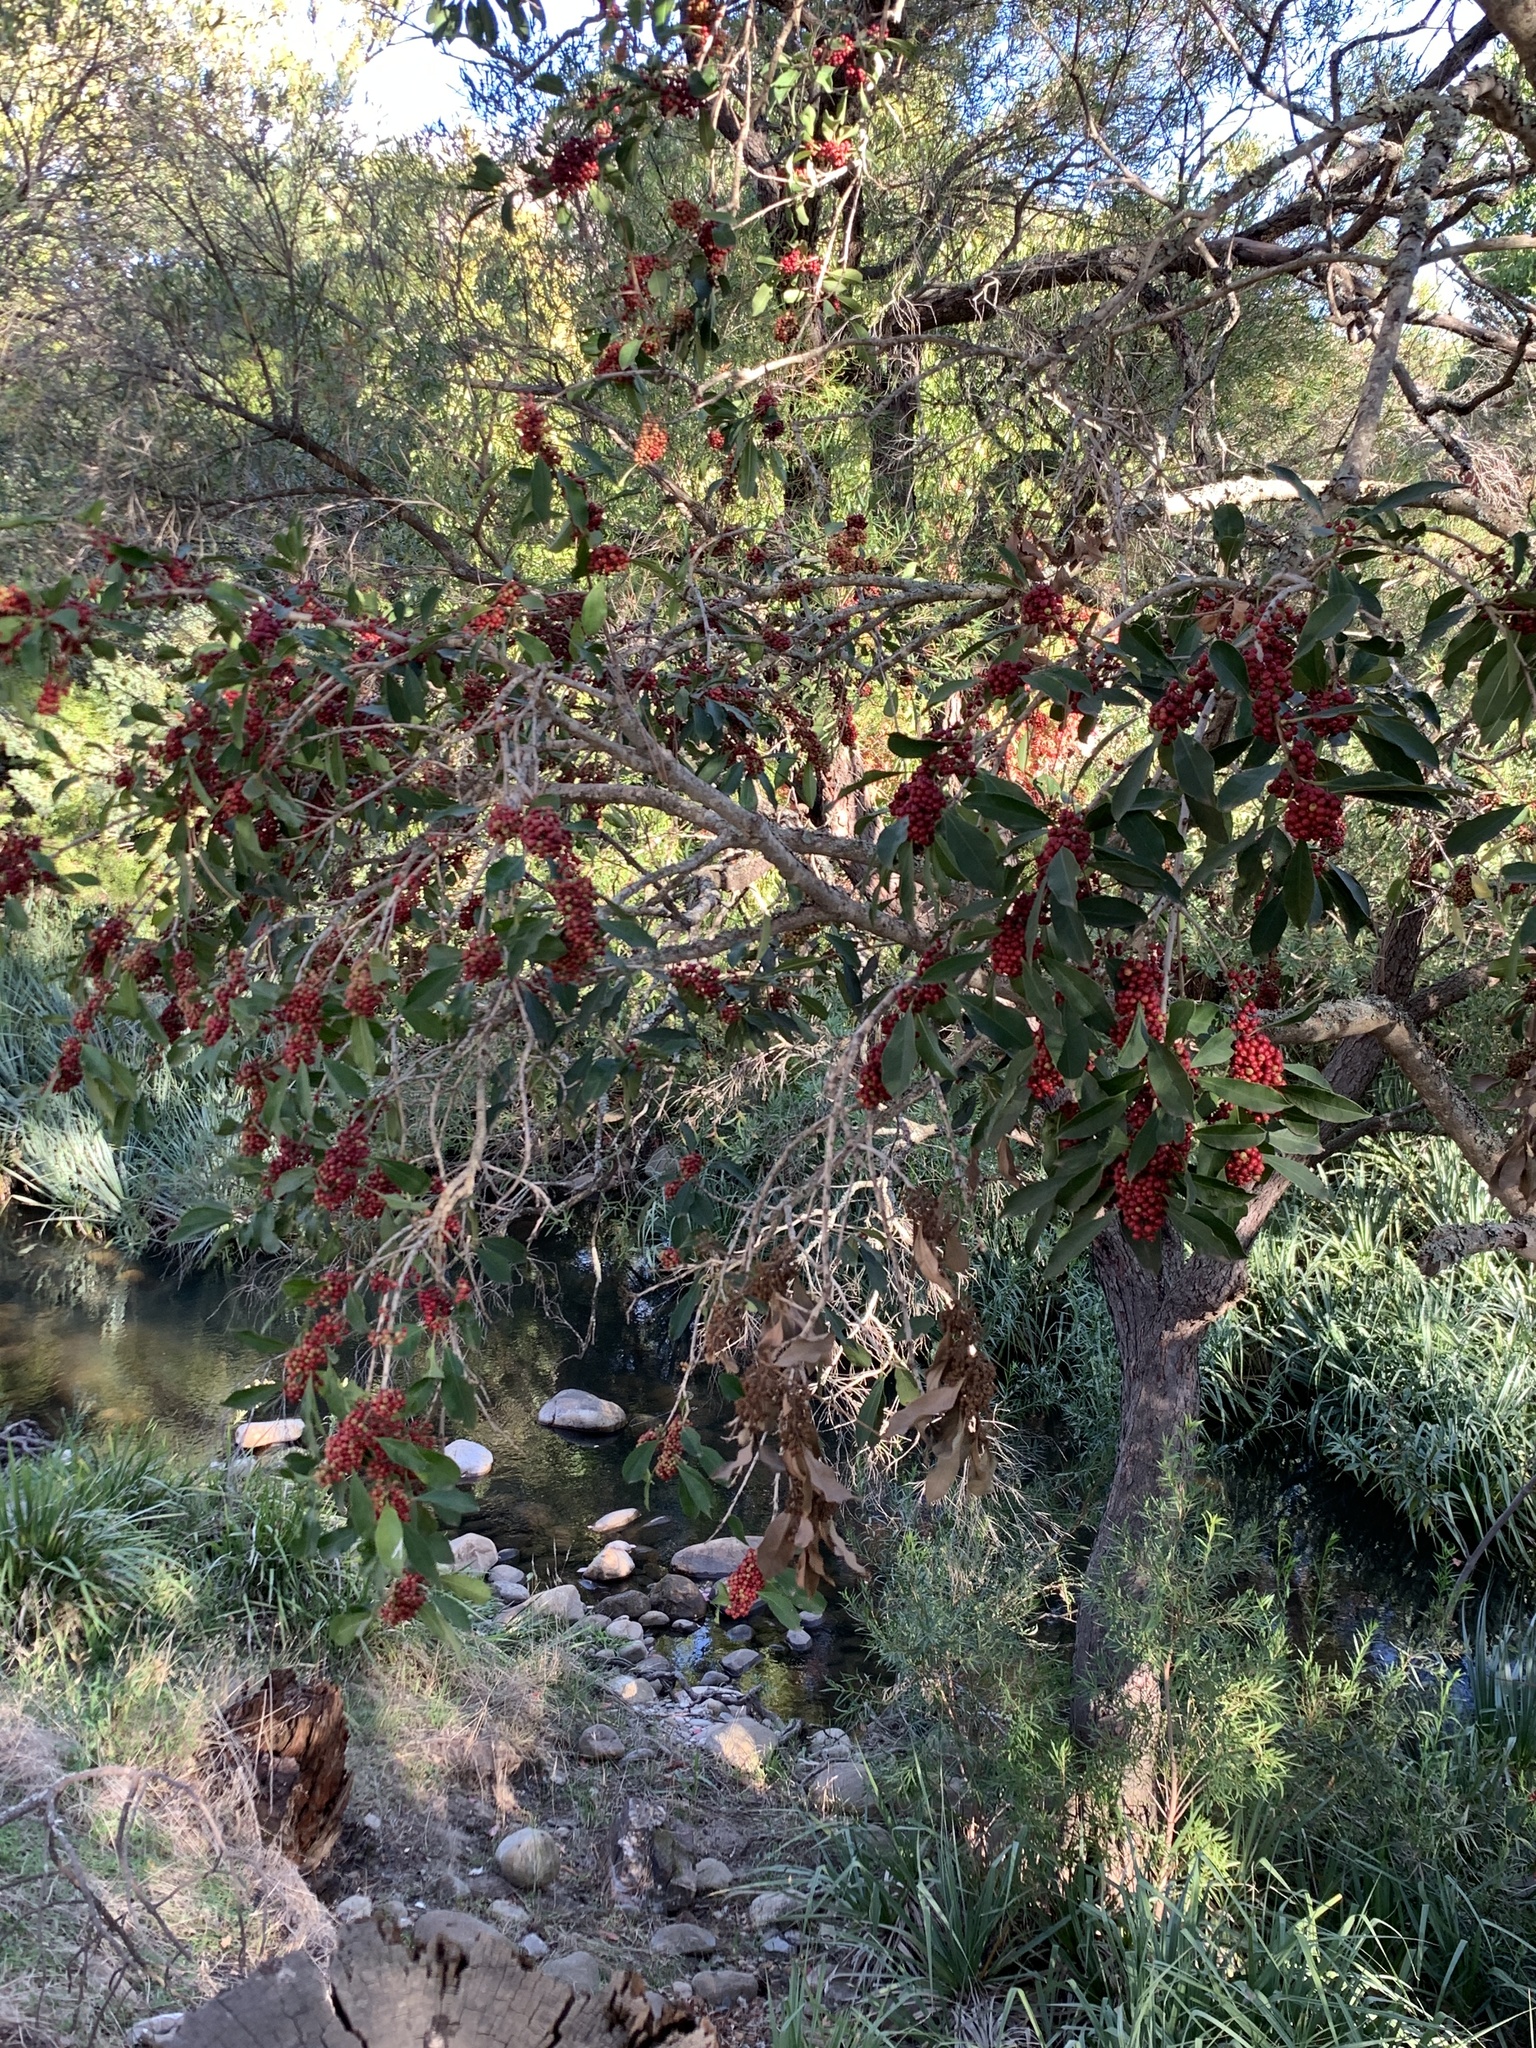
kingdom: Plantae
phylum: Tracheophyta
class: Magnoliopsida
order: Aquifoliales
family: Aquifoliaceae
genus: Ilex
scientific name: Ilex mitis
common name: African holly
